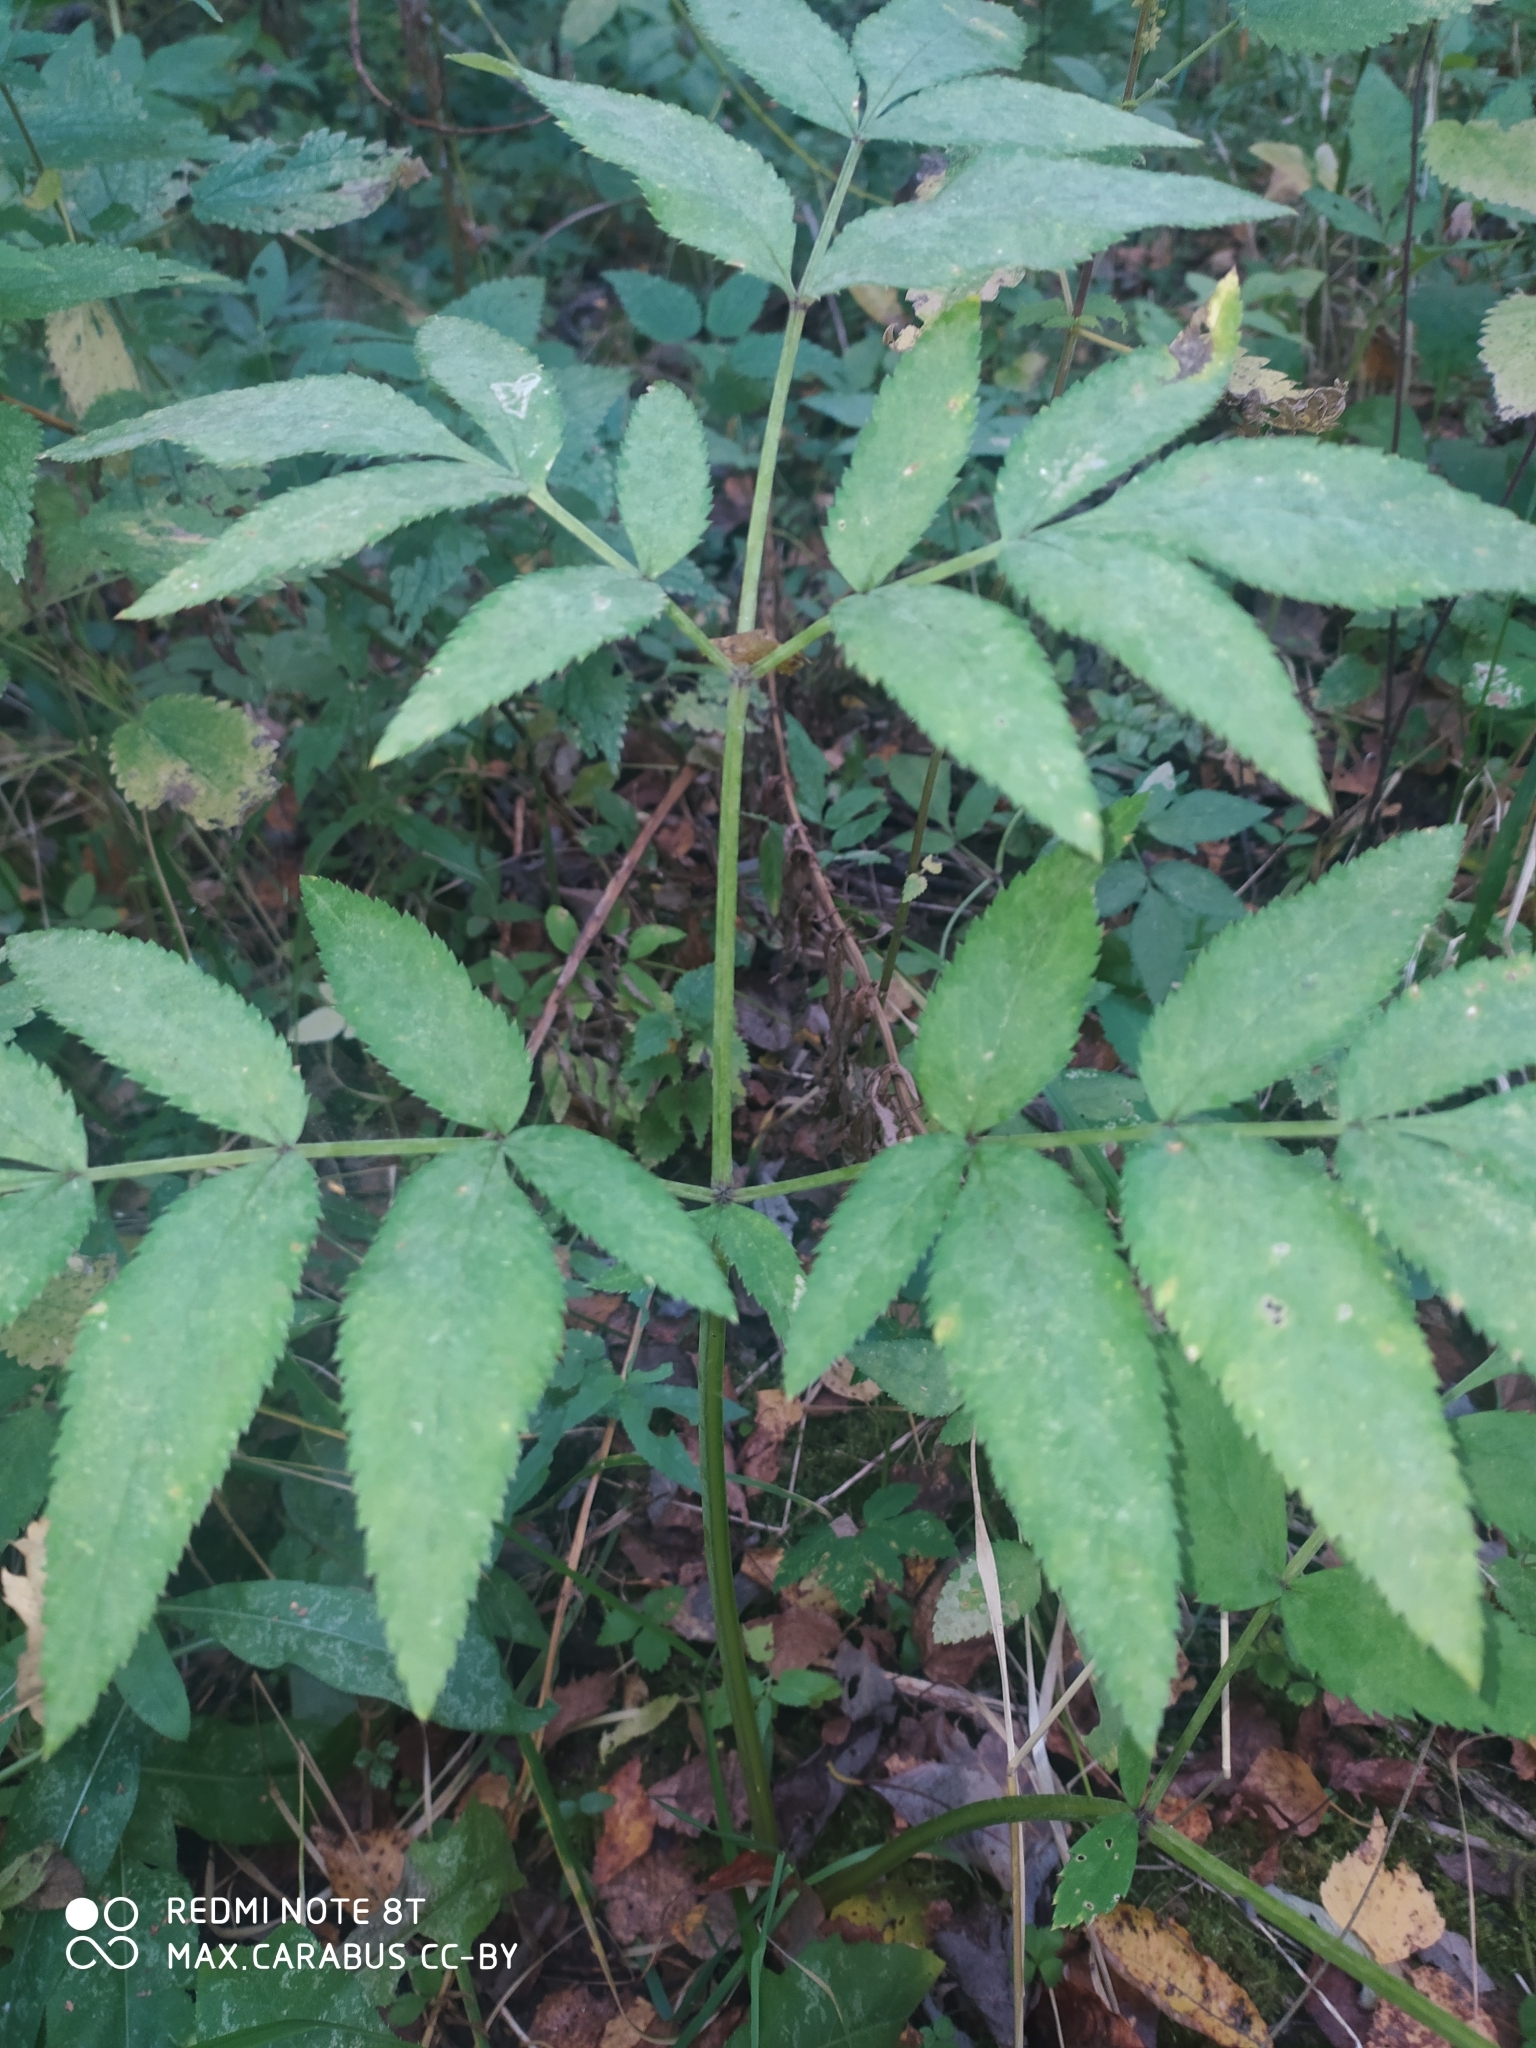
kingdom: Plantae
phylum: Tracheophyta
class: Magnoliopsida
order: Apiales
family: Apiaceae
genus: Angelica
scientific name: Angelica sylvestris
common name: Wild angelica
